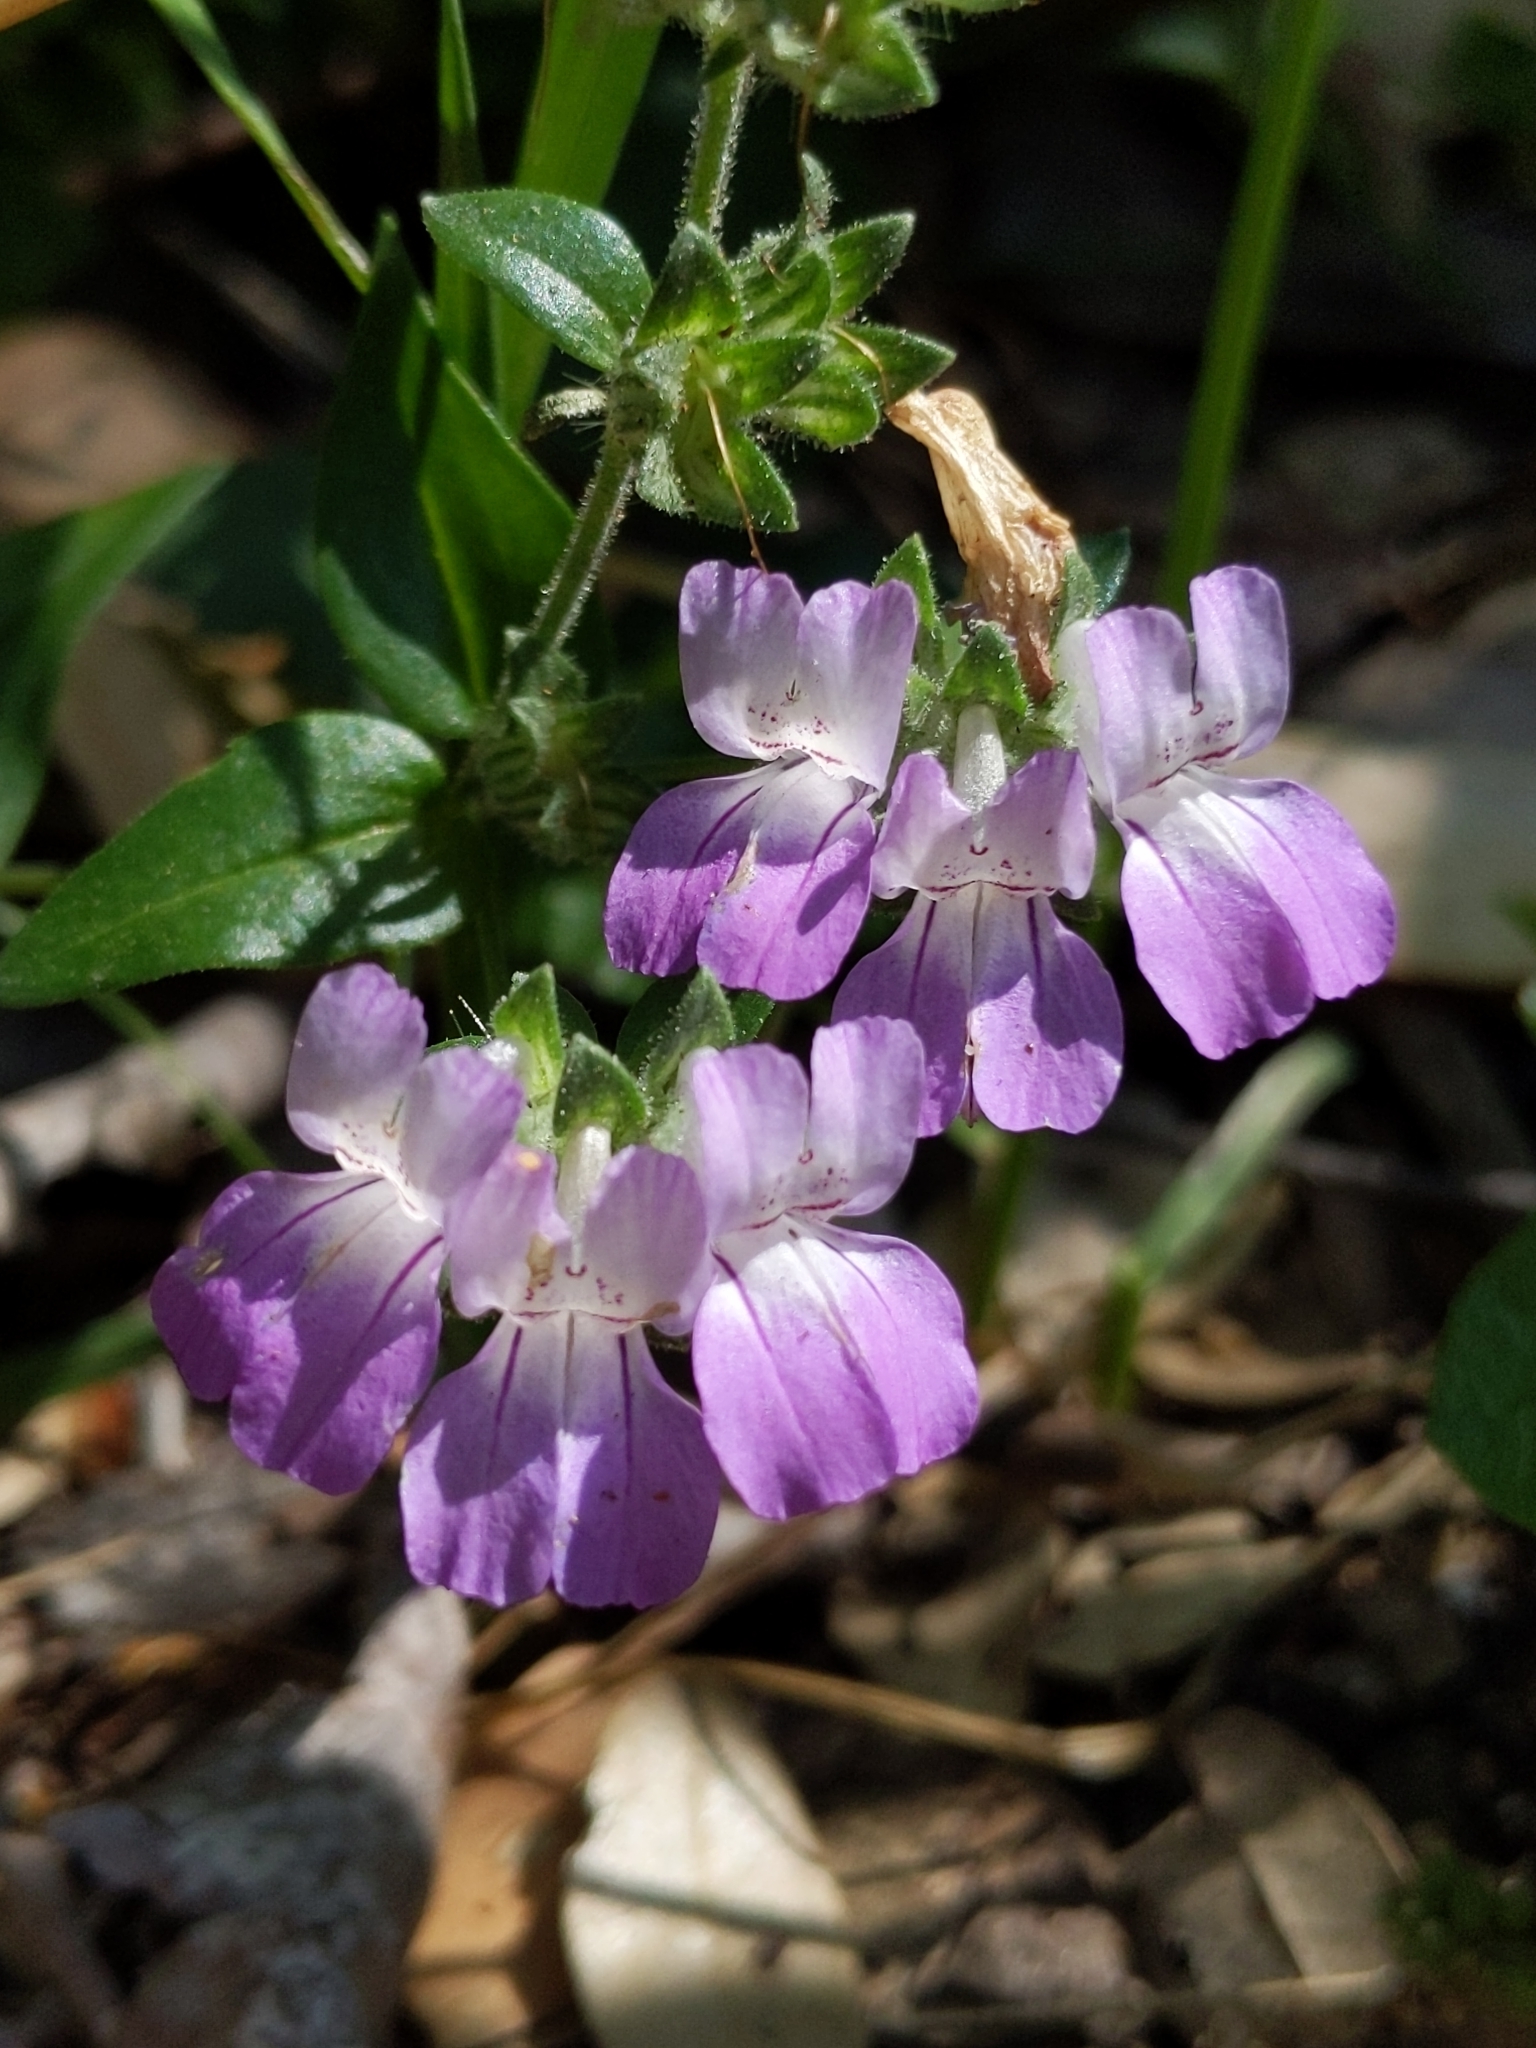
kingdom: Plantae
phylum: Tracheophyta
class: Magnoliopsida
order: Lamiales
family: Plantaginaceae
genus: Collinsia
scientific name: Collinsia heterophylla
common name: Chinese-houses
